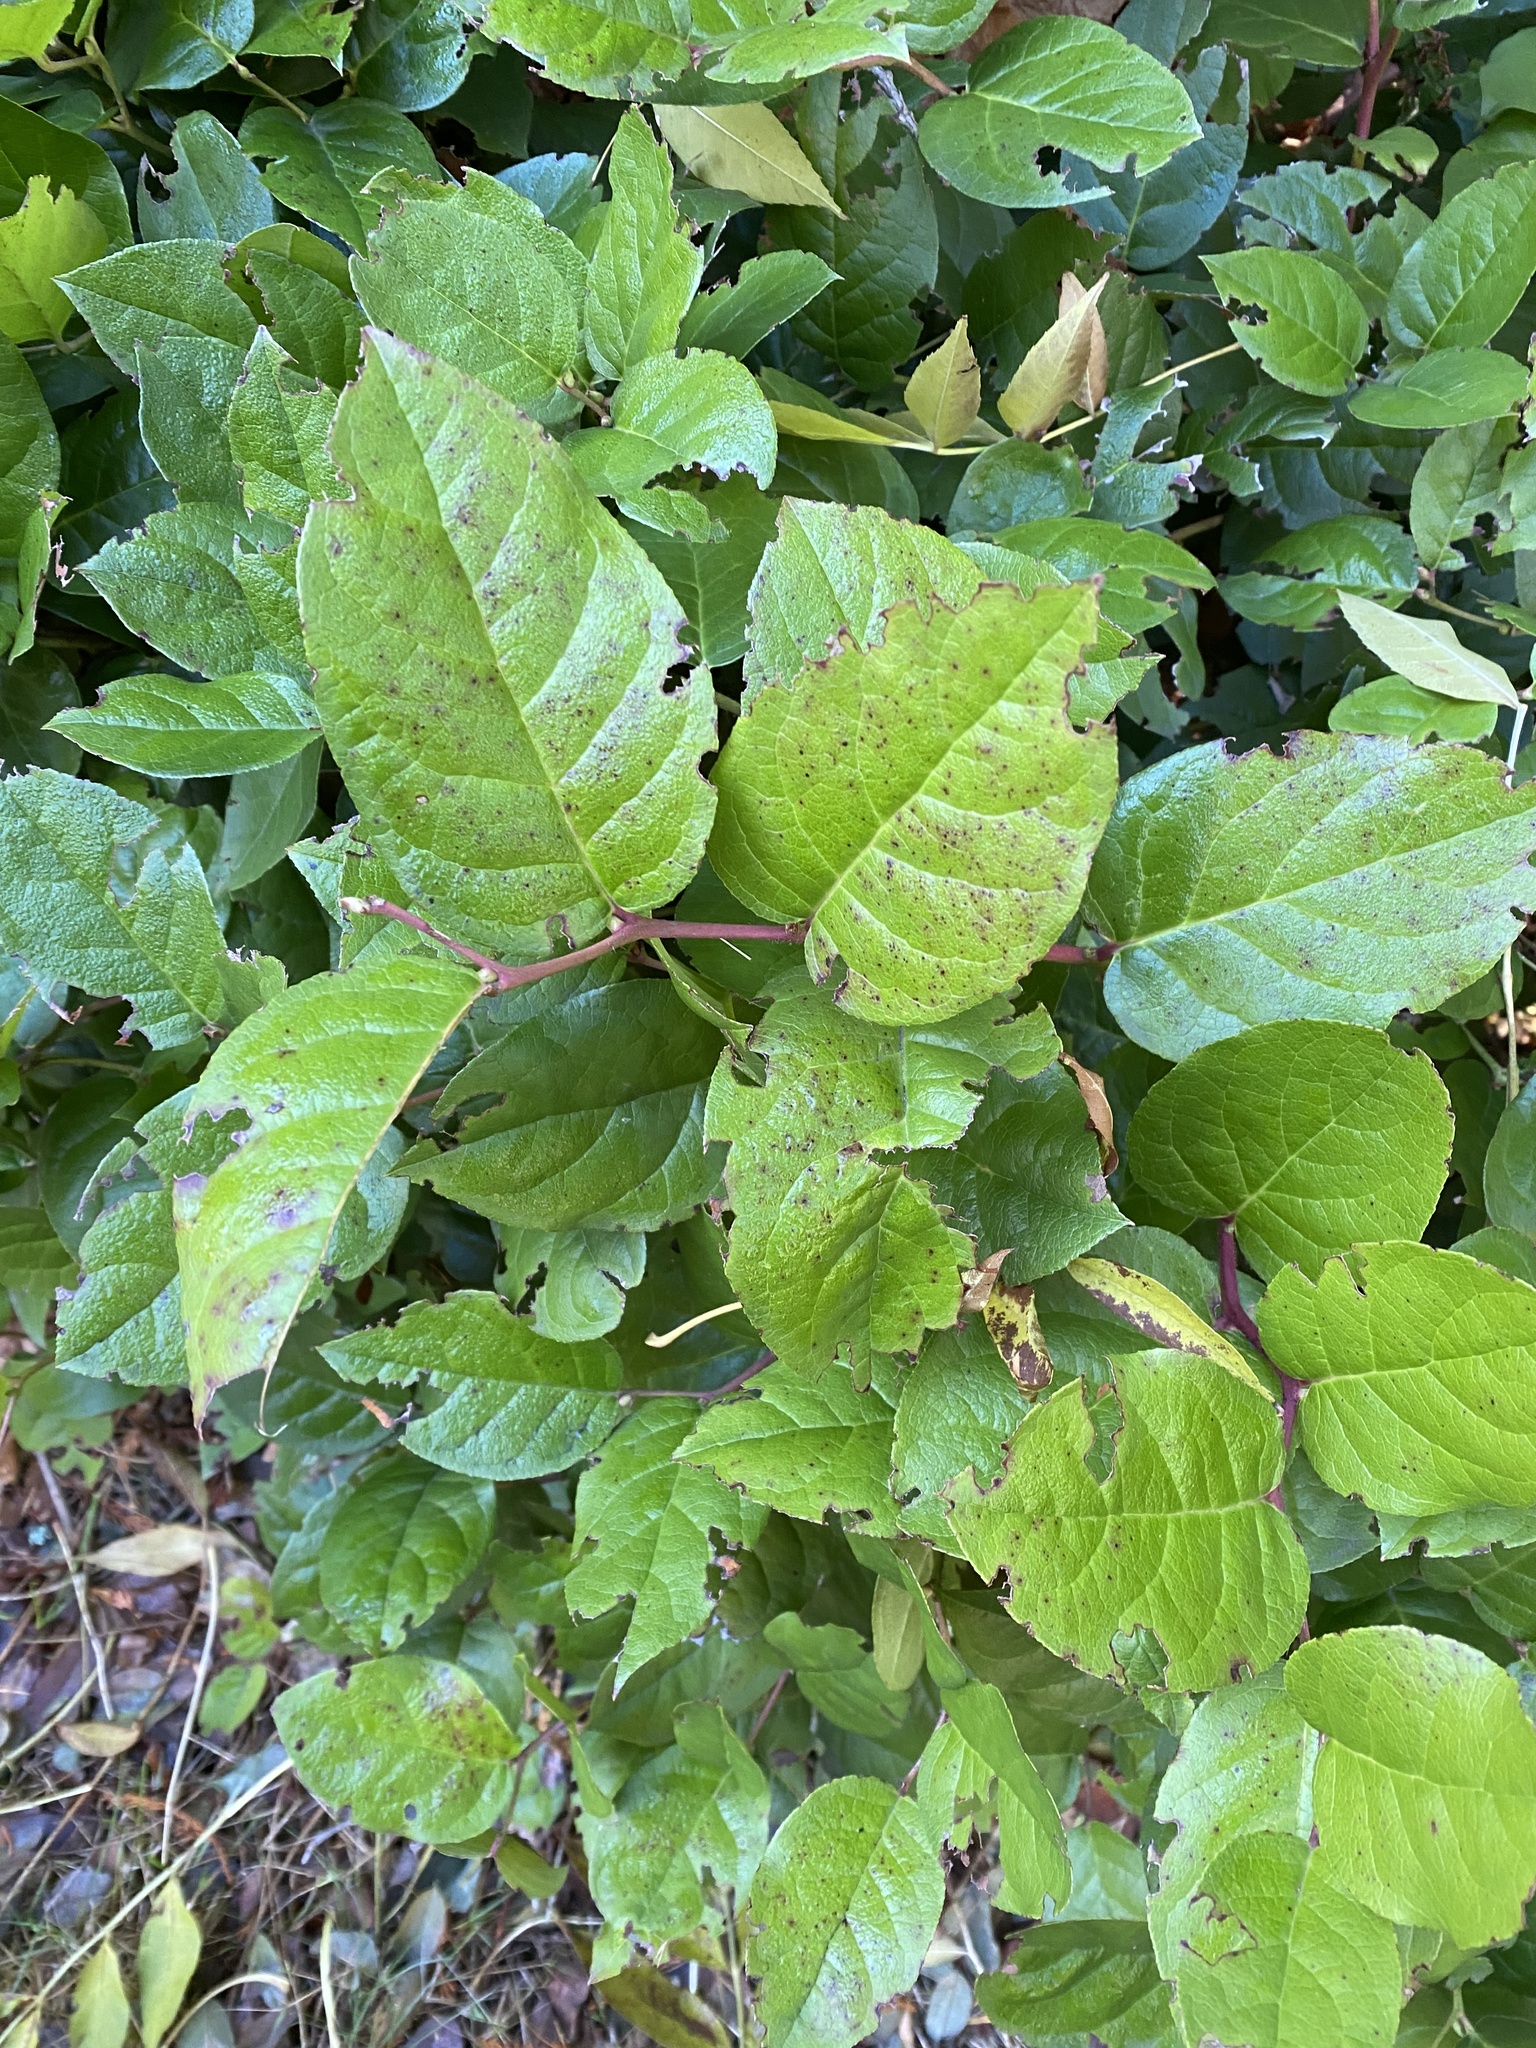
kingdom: Plantae
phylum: Tracheophyta
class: Magnoliopsida
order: Ericales
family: Ericaceae
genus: Gaultheria
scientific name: Gaultheria shallon
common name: Shallon
